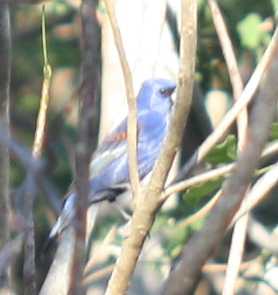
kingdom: Animalia
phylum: Chordata
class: Aves
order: Passeriformes
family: Cardinalidae
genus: Passerina
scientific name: Passerina caerulea
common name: Blue grosbeak
